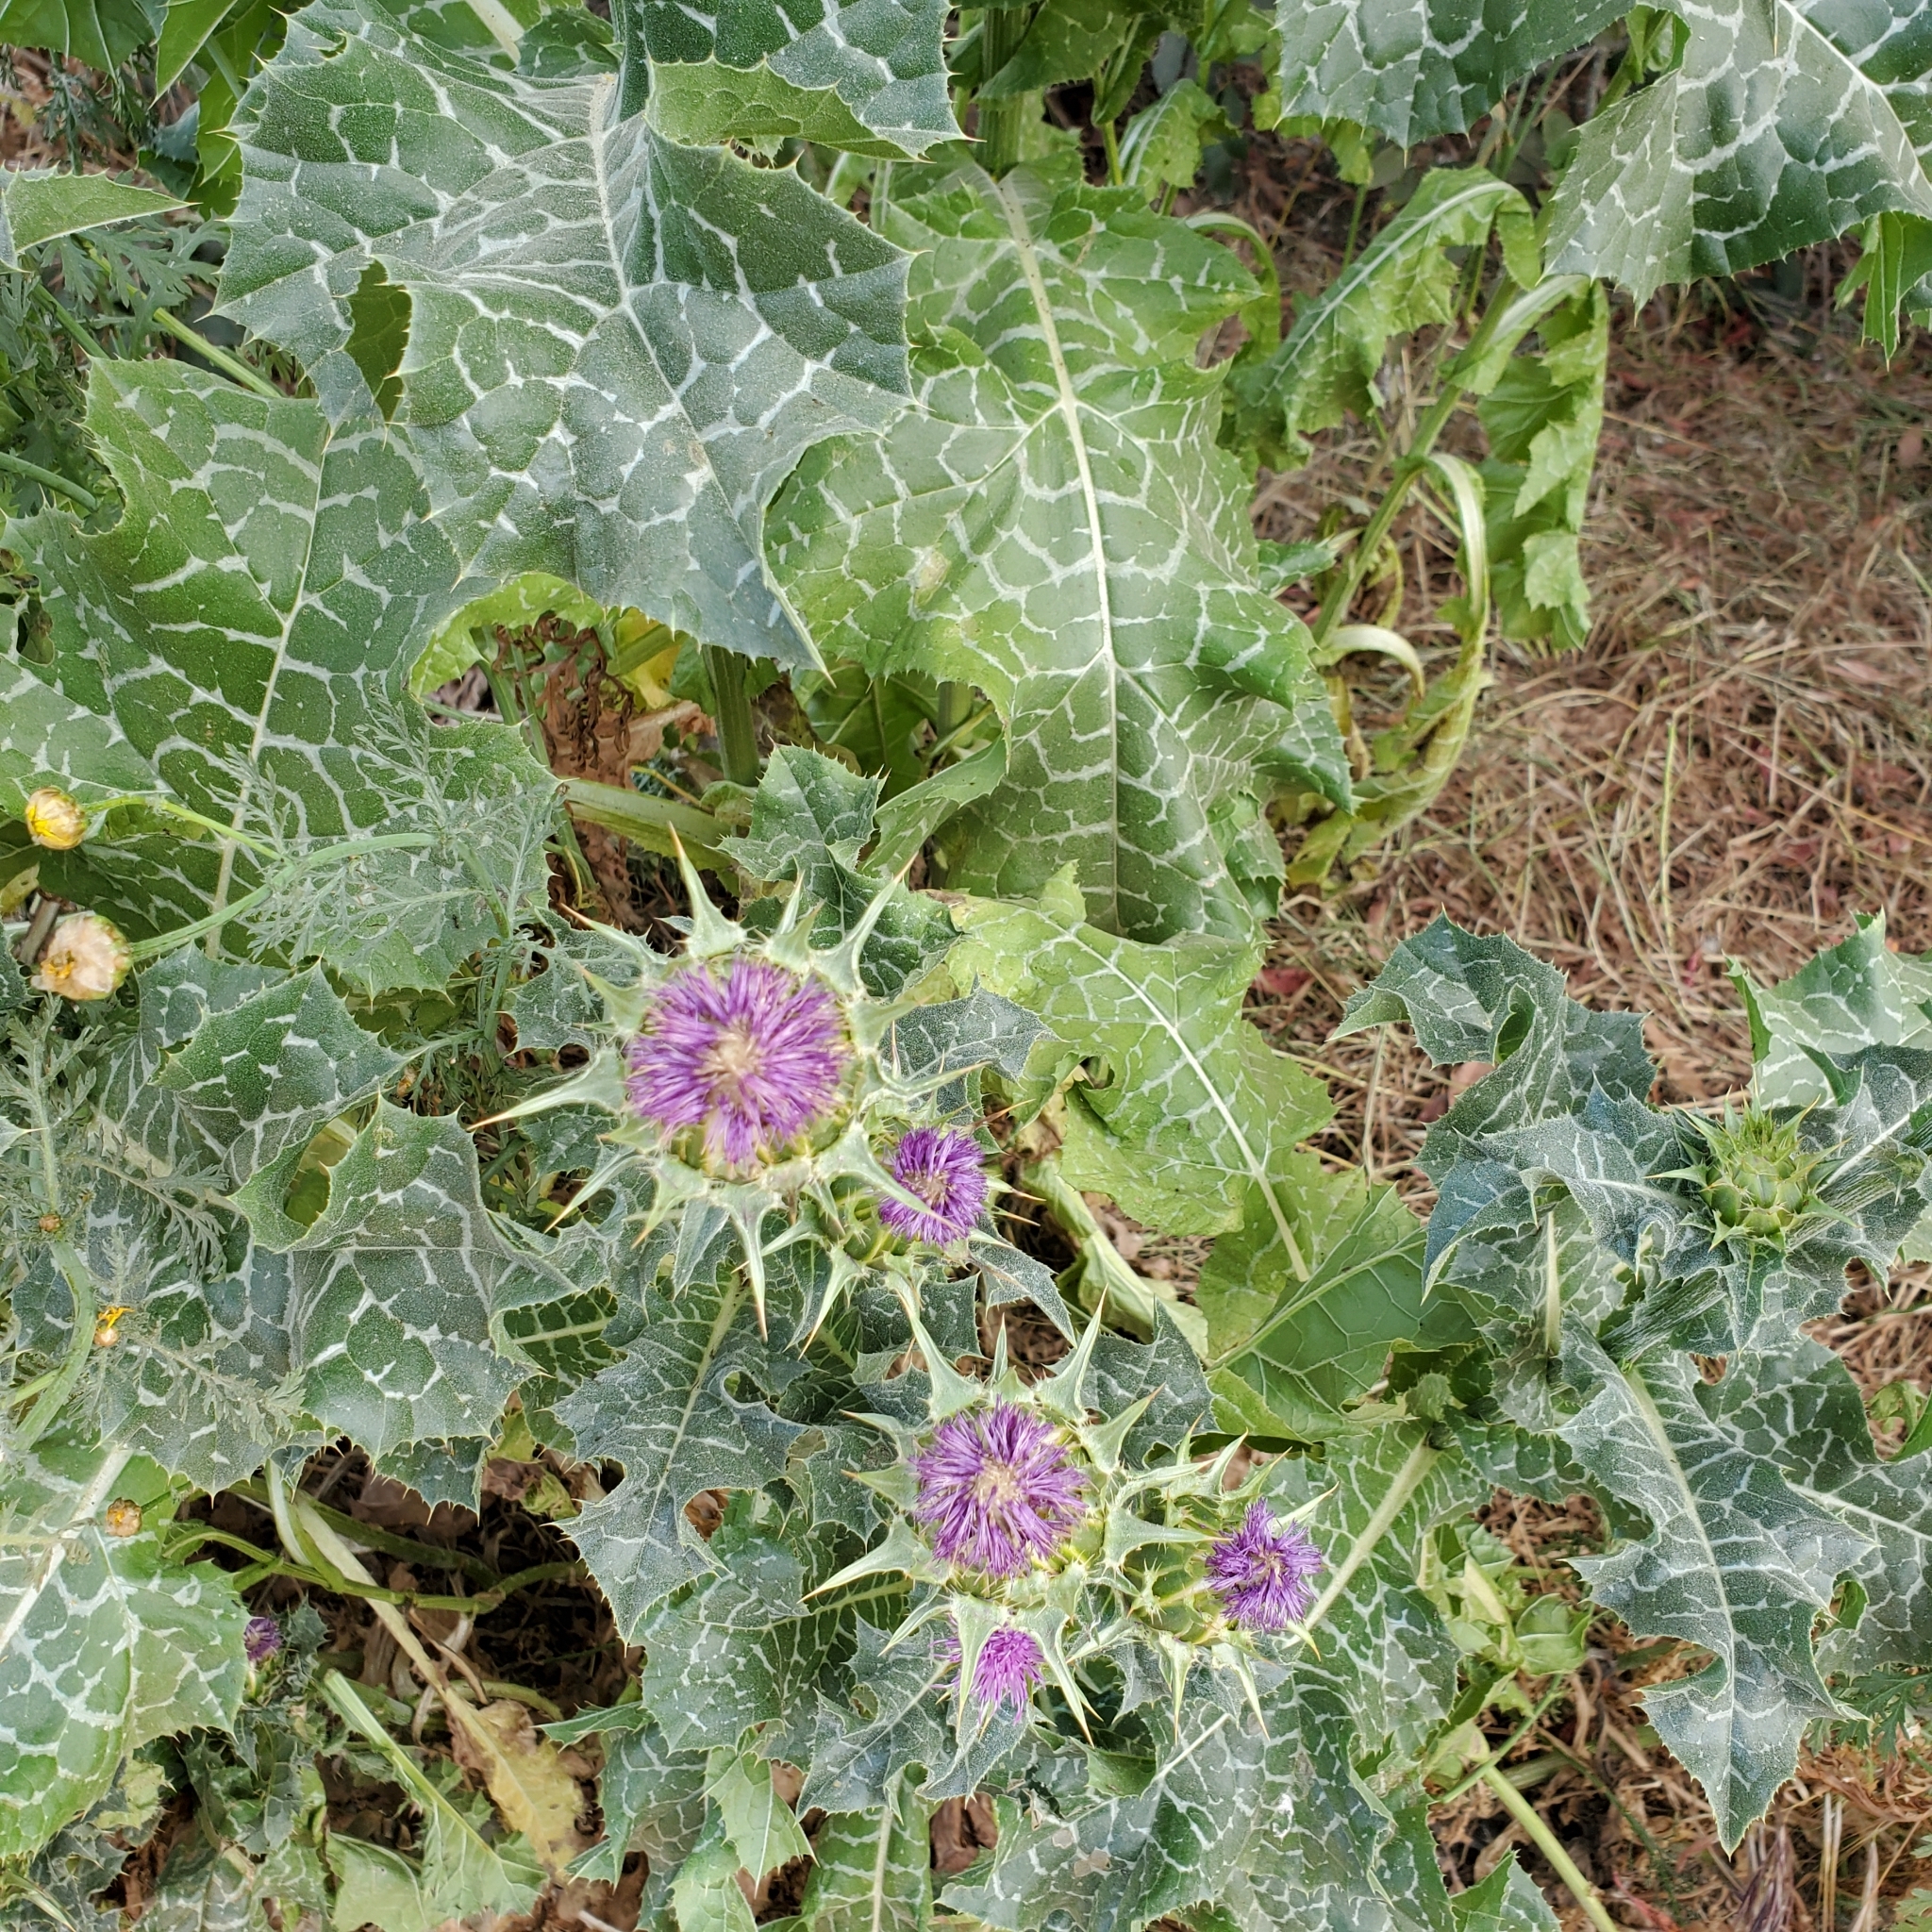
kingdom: Plantae
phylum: Tracheophyta
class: Magnoliopsida
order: Asterales
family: Asteraceae
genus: Silybum
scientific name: Silybum marianum
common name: Milk thistle
